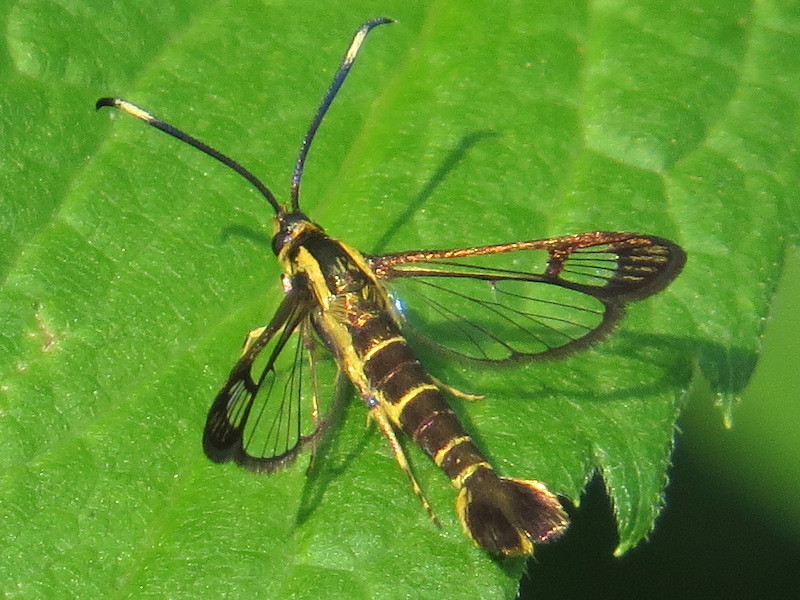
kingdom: Animalia
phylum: Arthropoda
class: Insecta
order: Lepidoptera
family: Sesiidae
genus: Carmenta
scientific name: Carmenta bassiformis
